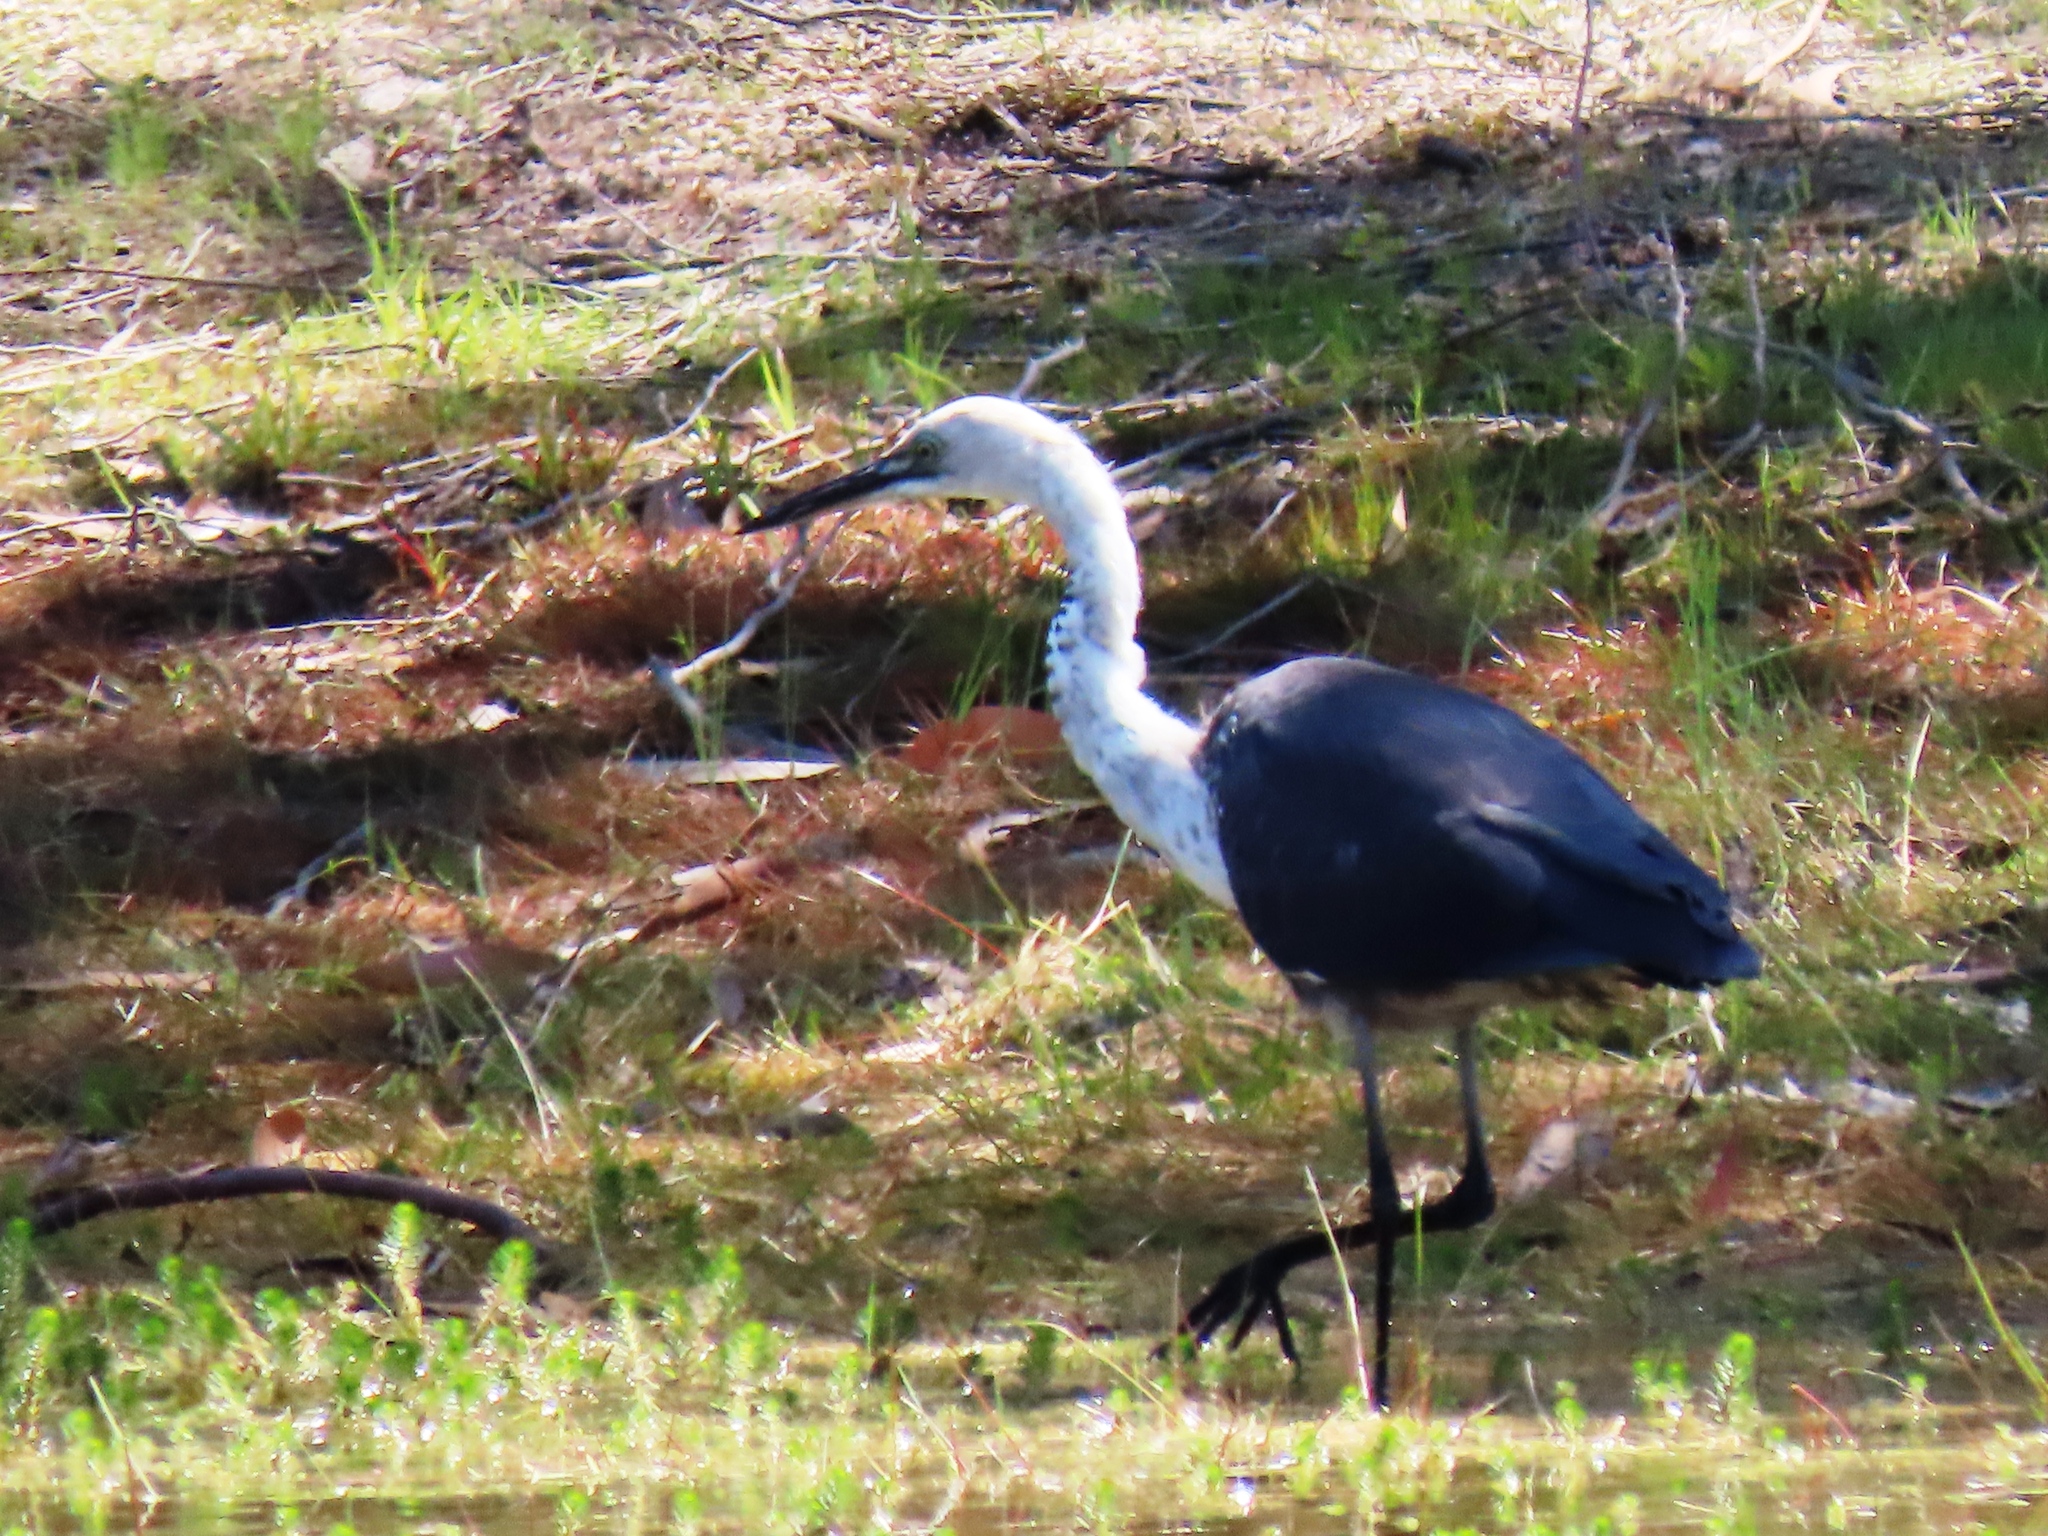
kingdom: Animalia
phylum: Chordata
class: Aves
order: Pelecaniformes
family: Ardeidae
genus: Ardea
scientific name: Ardea pacifica
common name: White-necked heron
